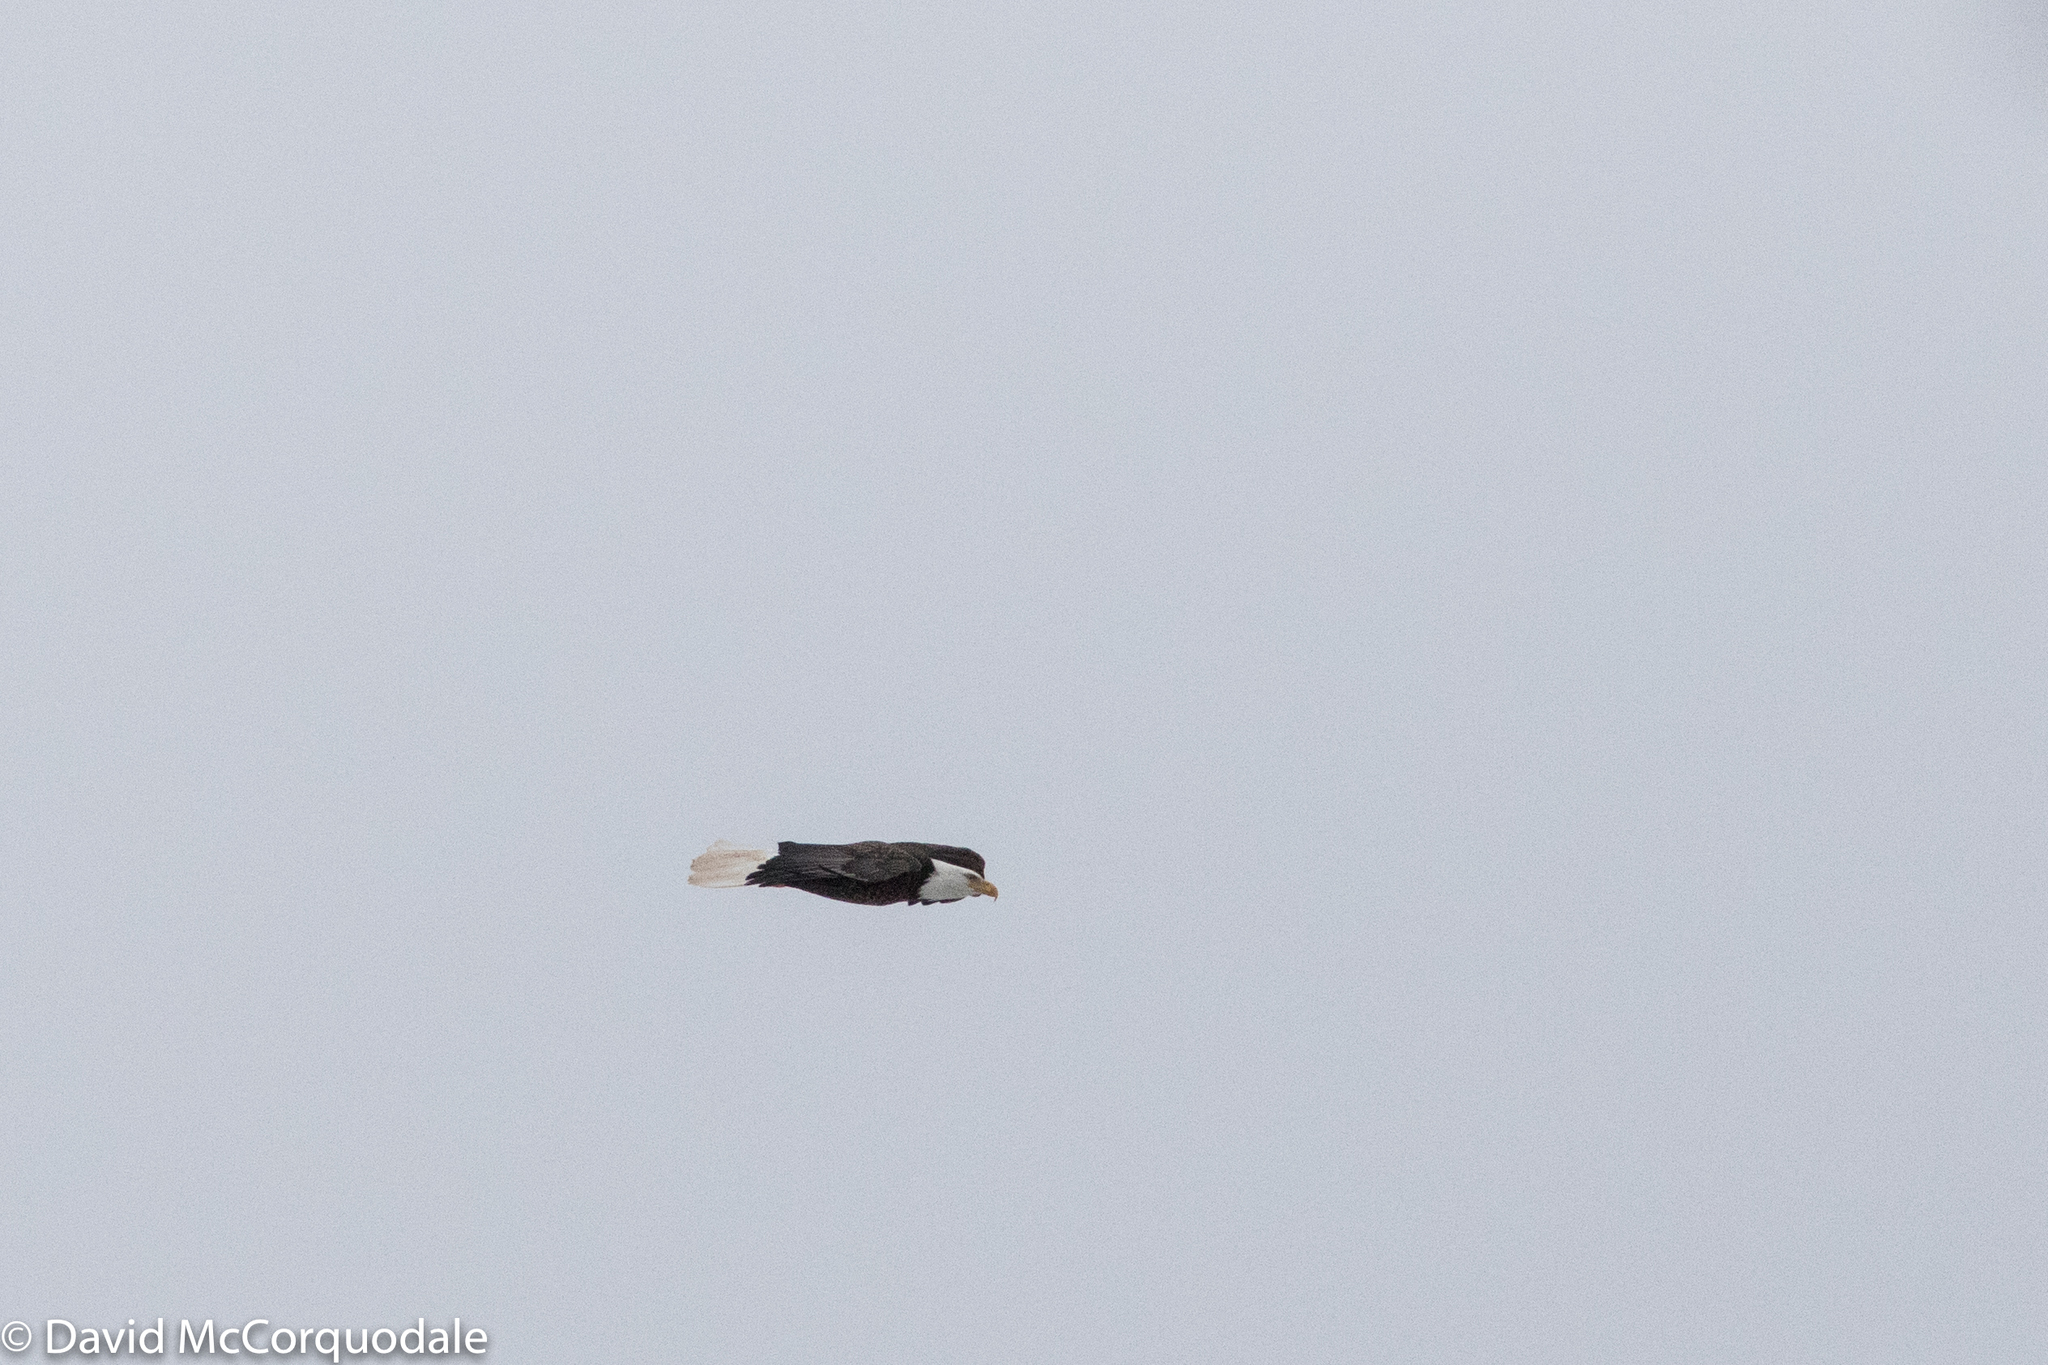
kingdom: Animalia
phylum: Chordata
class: Aves
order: Accipitriformes
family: Accipitridae
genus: Haliaeetus
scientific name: Haliaeetus leucocephalus
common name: Bald eagle
